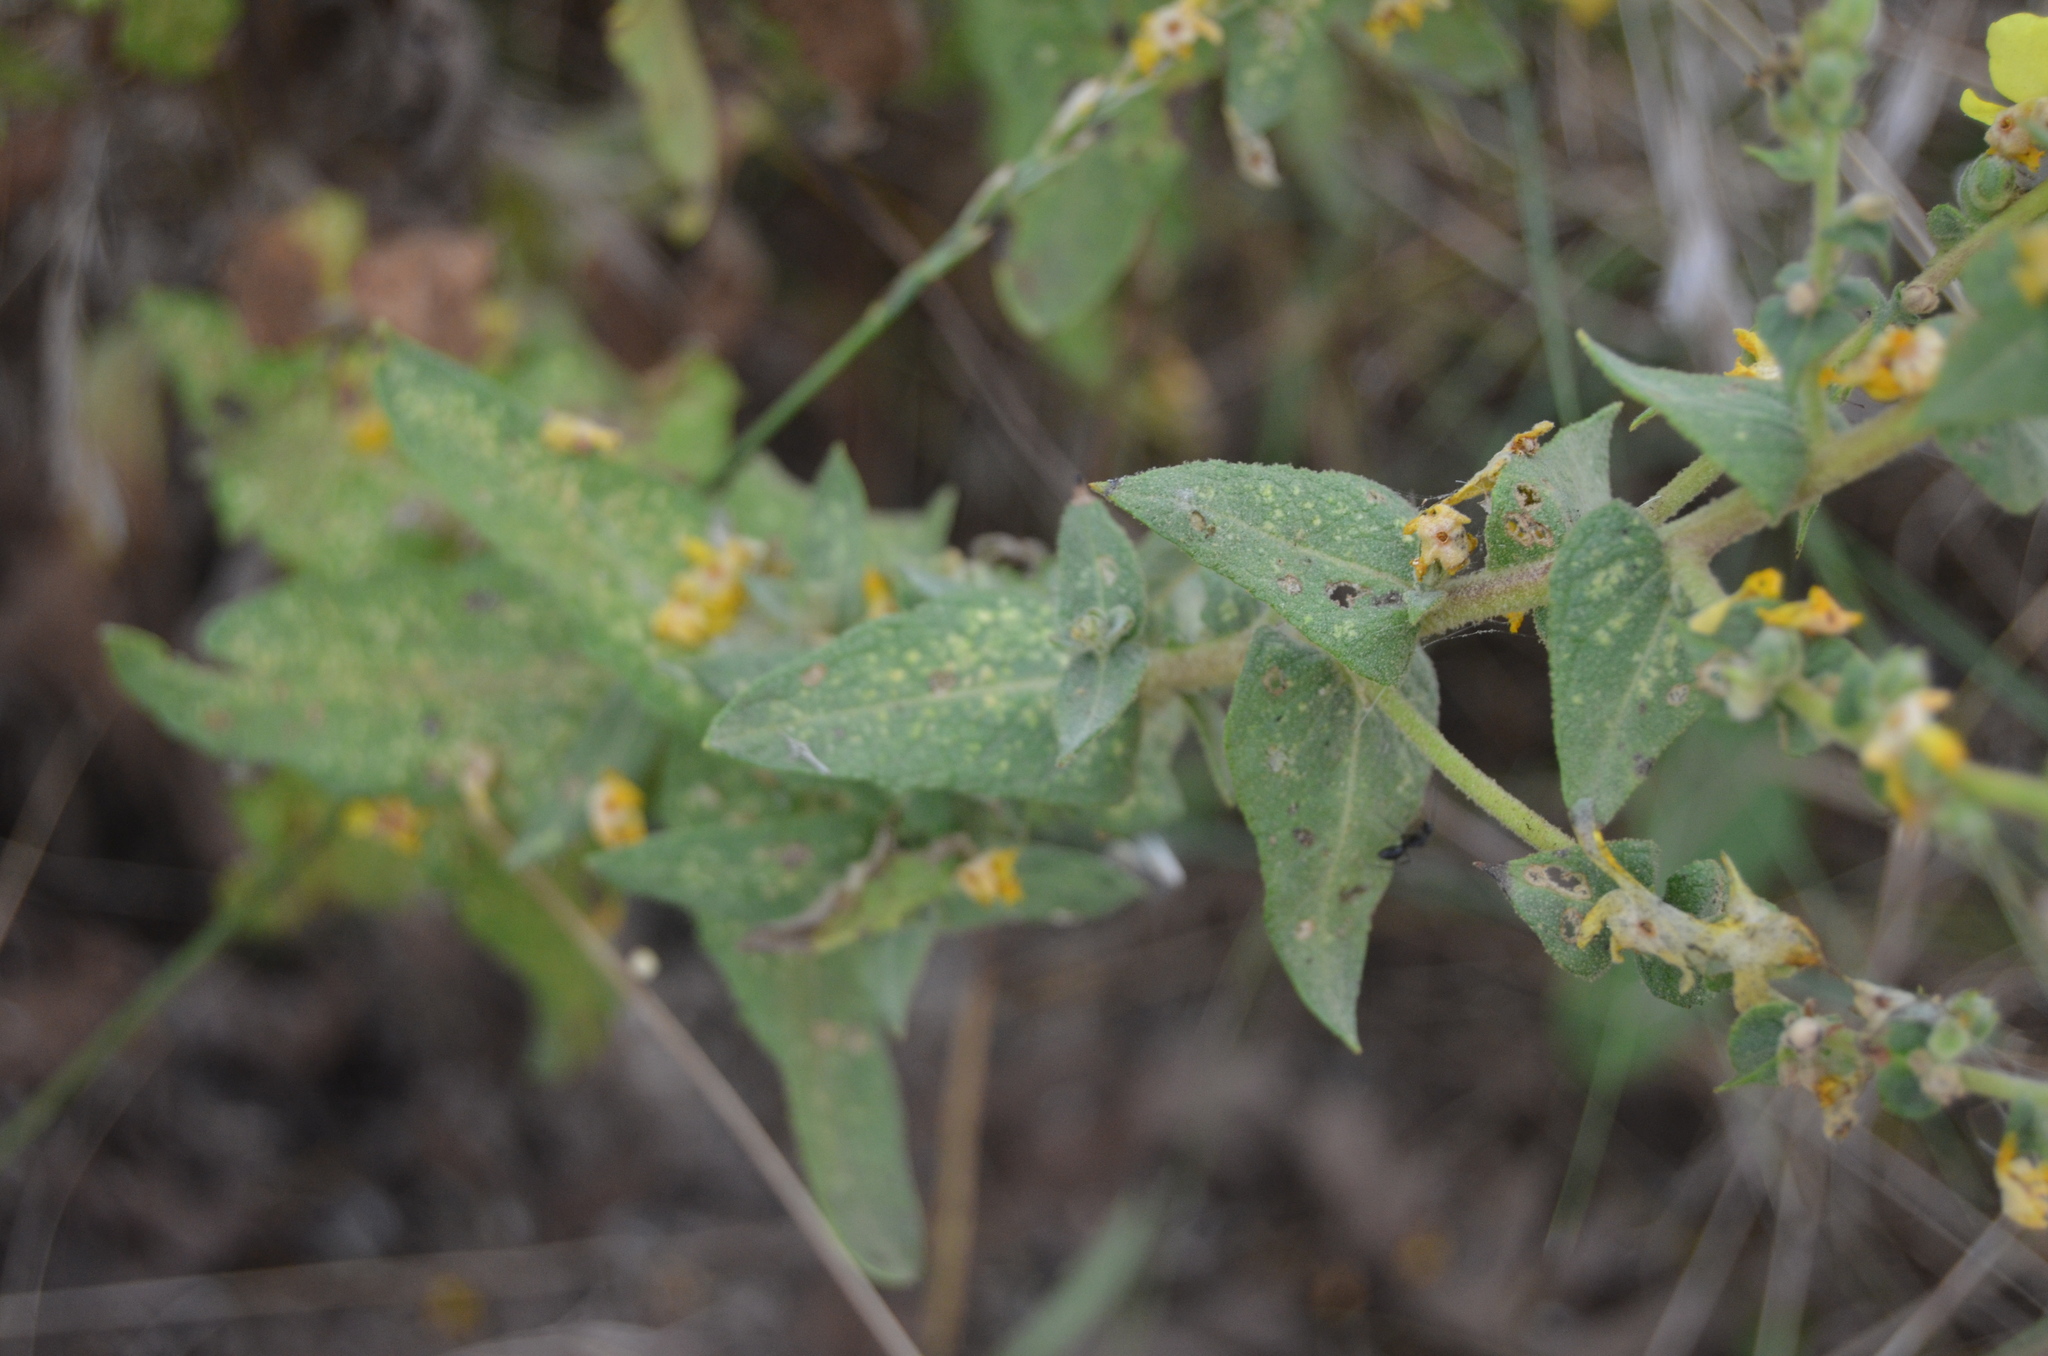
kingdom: Plantae
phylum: Tracheophyta
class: Magnoliopsida
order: Lamiales
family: Scrophulariaceae
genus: Verbascum
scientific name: Verbascum sinuatum
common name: Wavyleaf mullein
